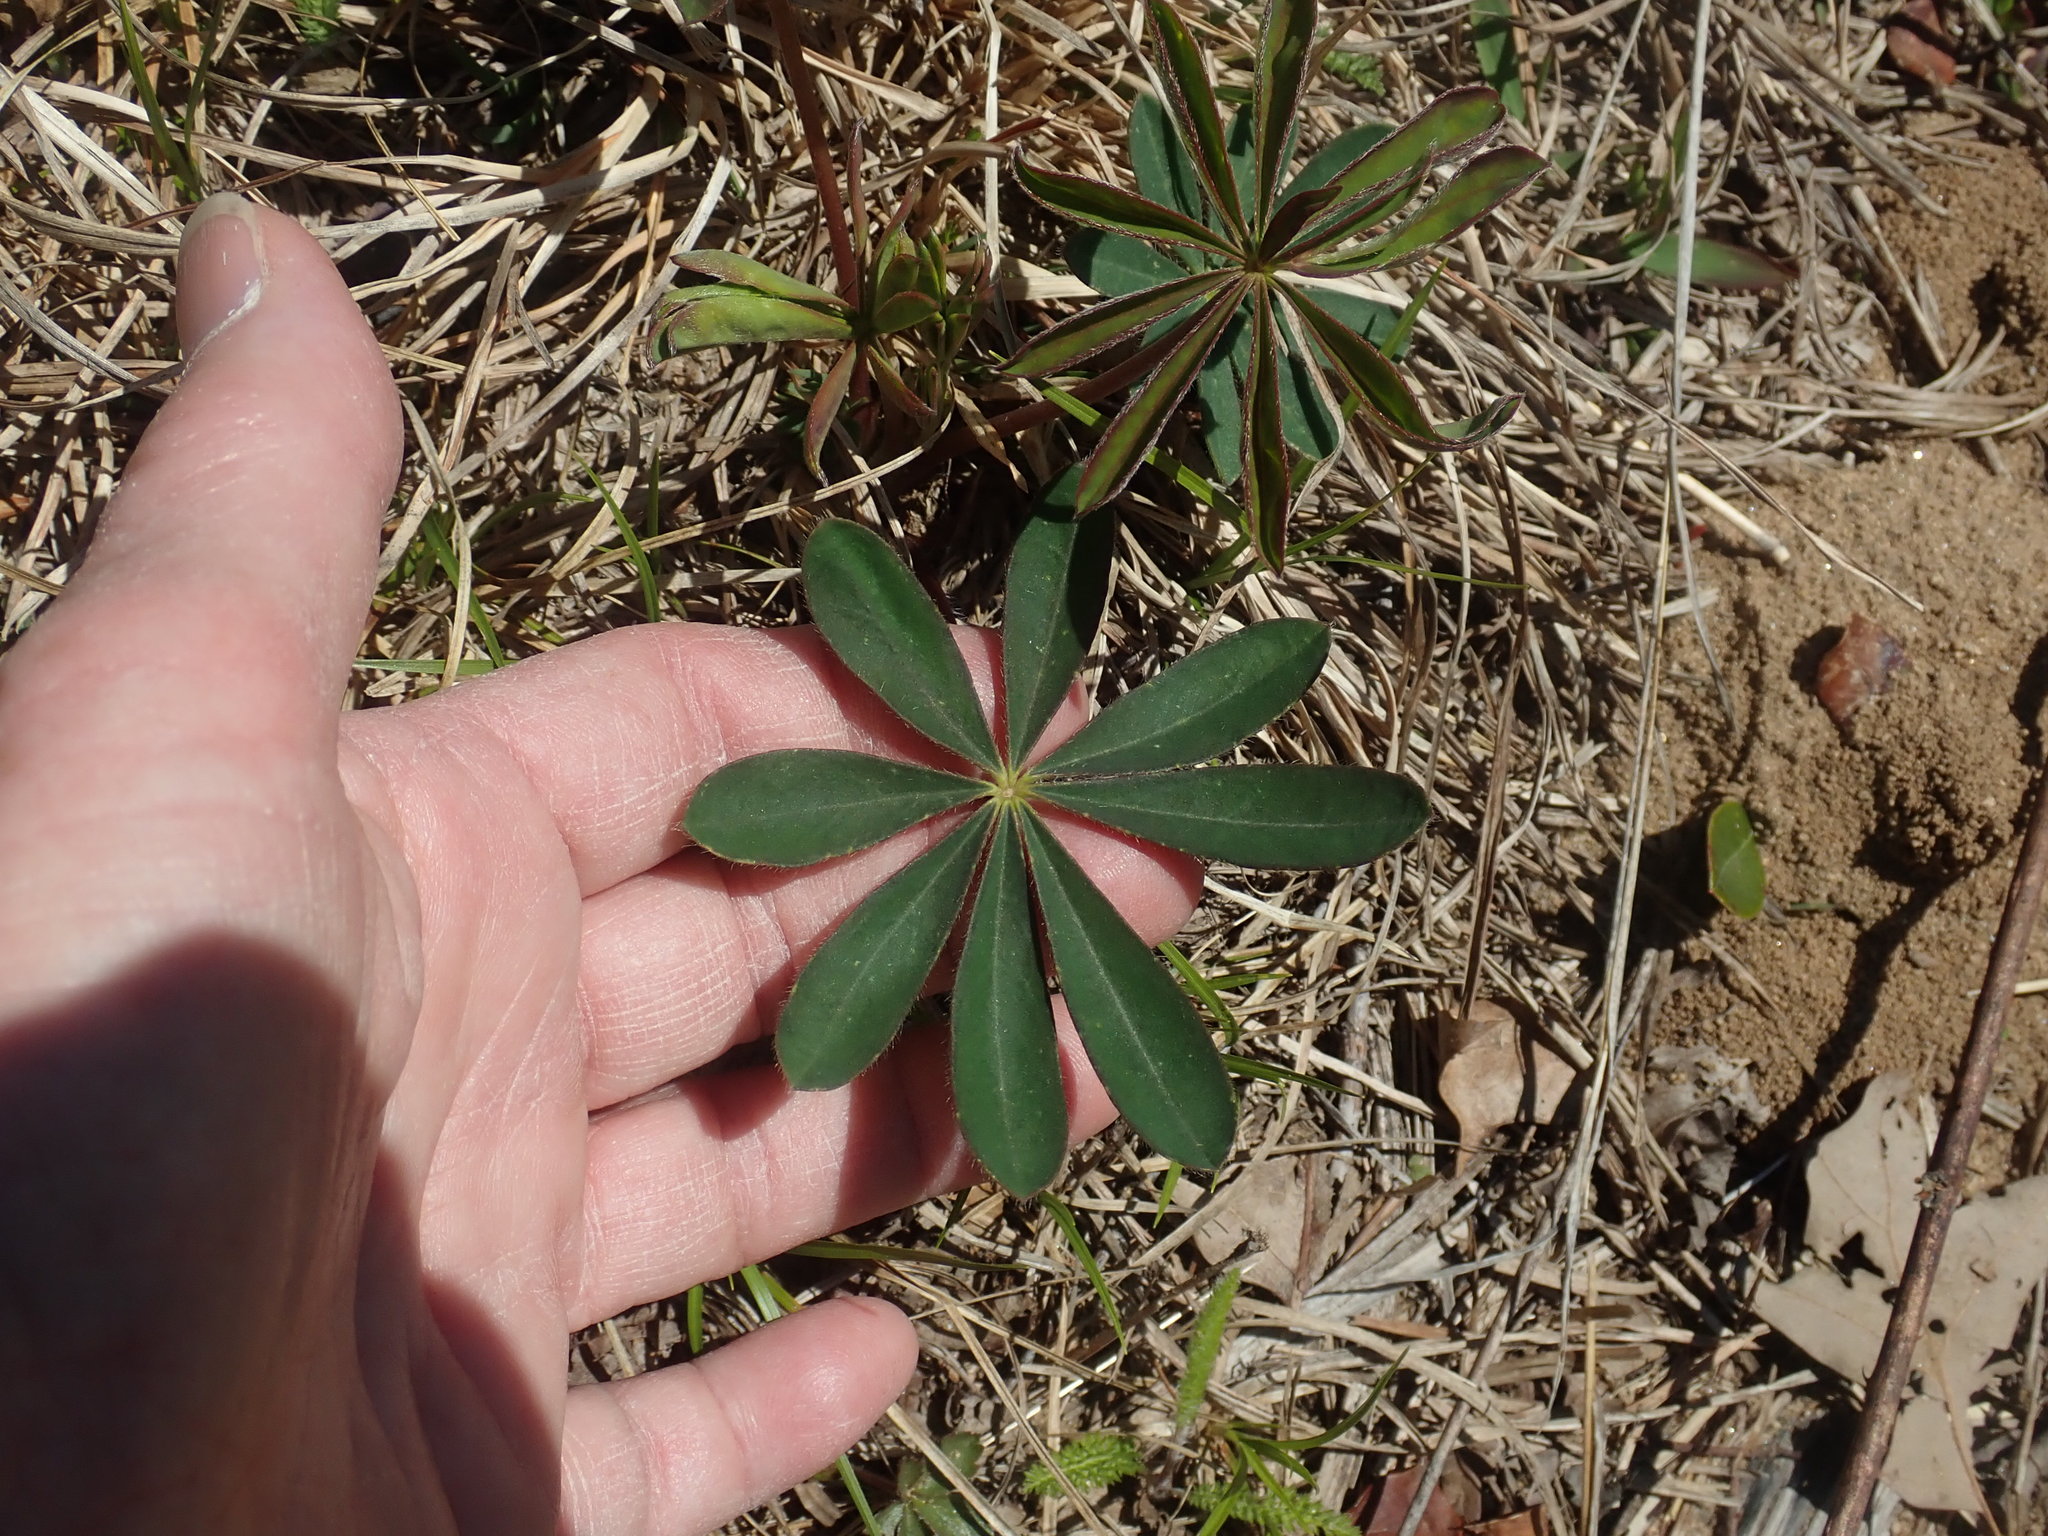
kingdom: Plantae
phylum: Tracheophyta
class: Magnoliopsida
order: Fabales
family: Fabaceae
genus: Lupinus
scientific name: Lupinus perennis
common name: Sundial lupine
